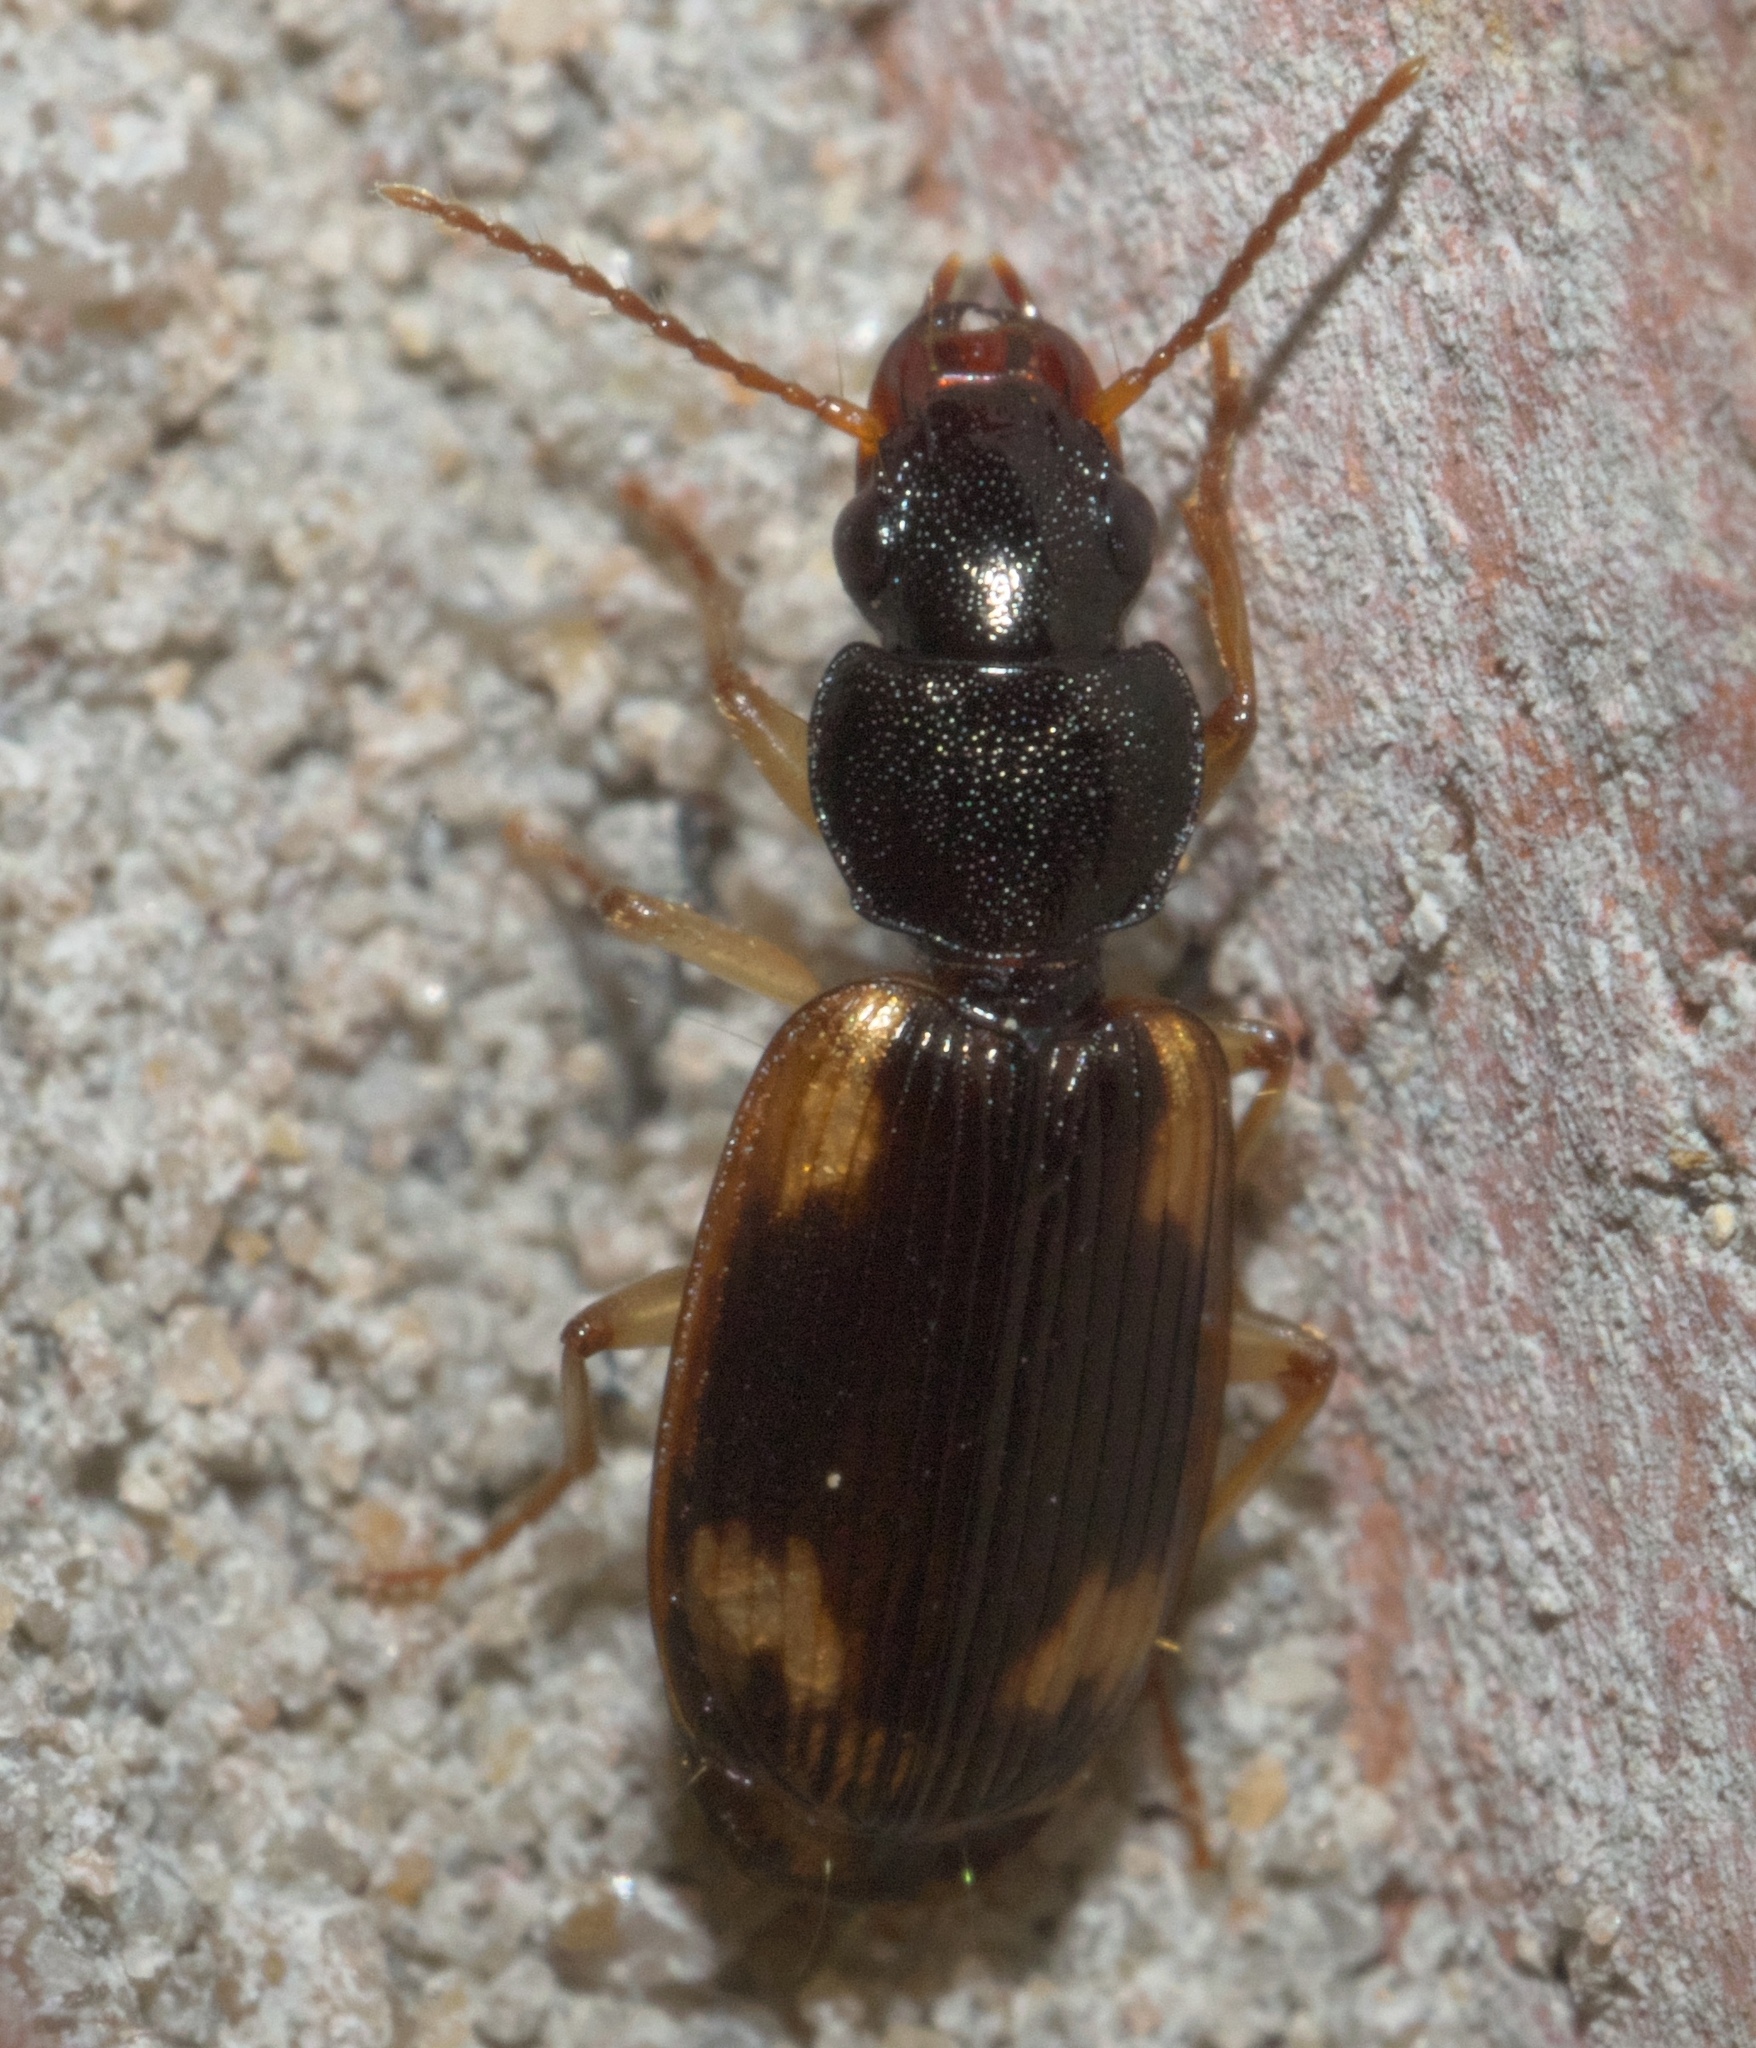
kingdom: Animalia
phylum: Arthropoda
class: Insecta
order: Coleoptera
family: Carabidae
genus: Apenes
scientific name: Apenes sinuata
